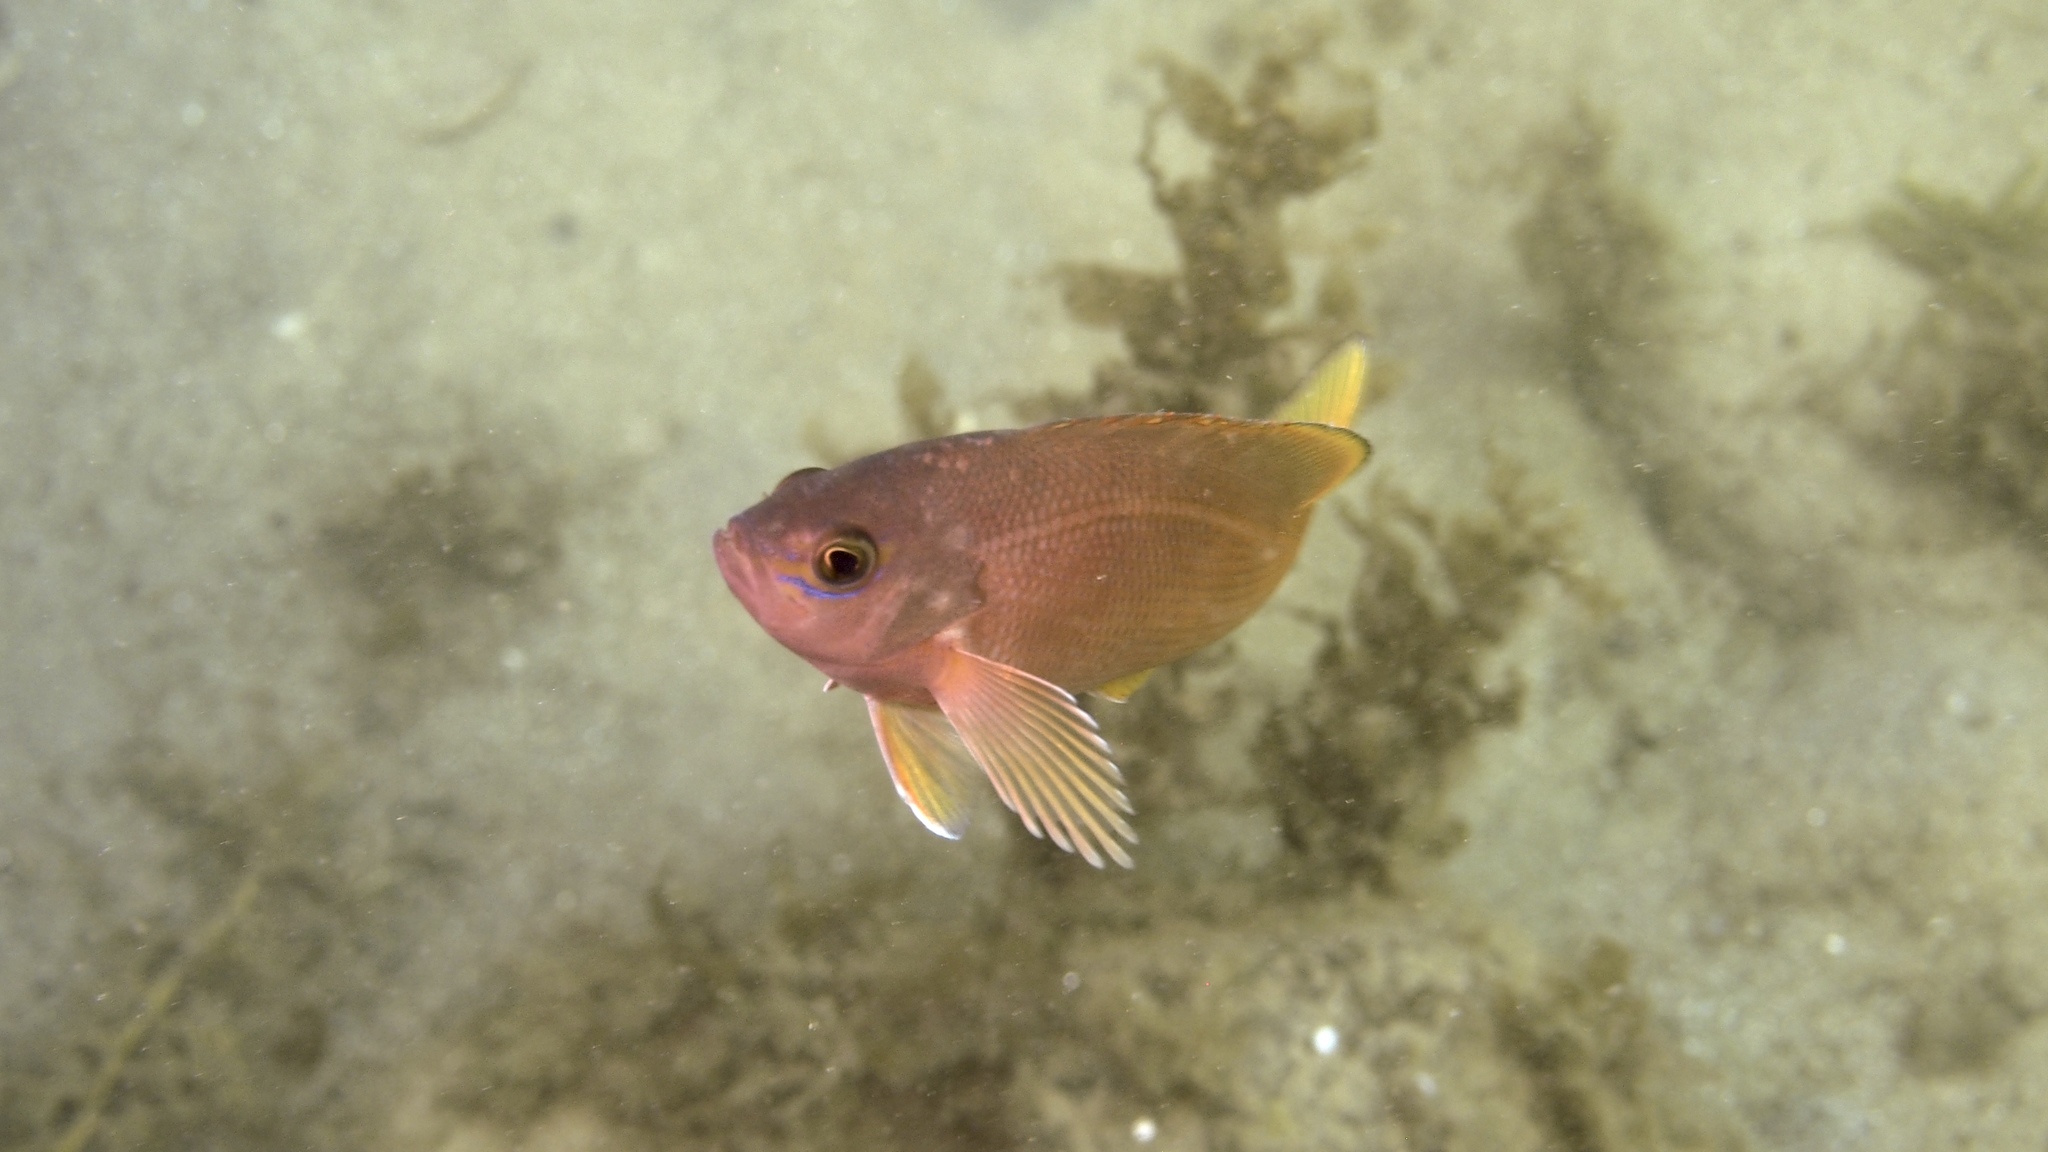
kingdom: Animalia
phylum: Chordata
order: Perciformes
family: Serranidae
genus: Caesioperca
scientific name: Caesioperca rasor
